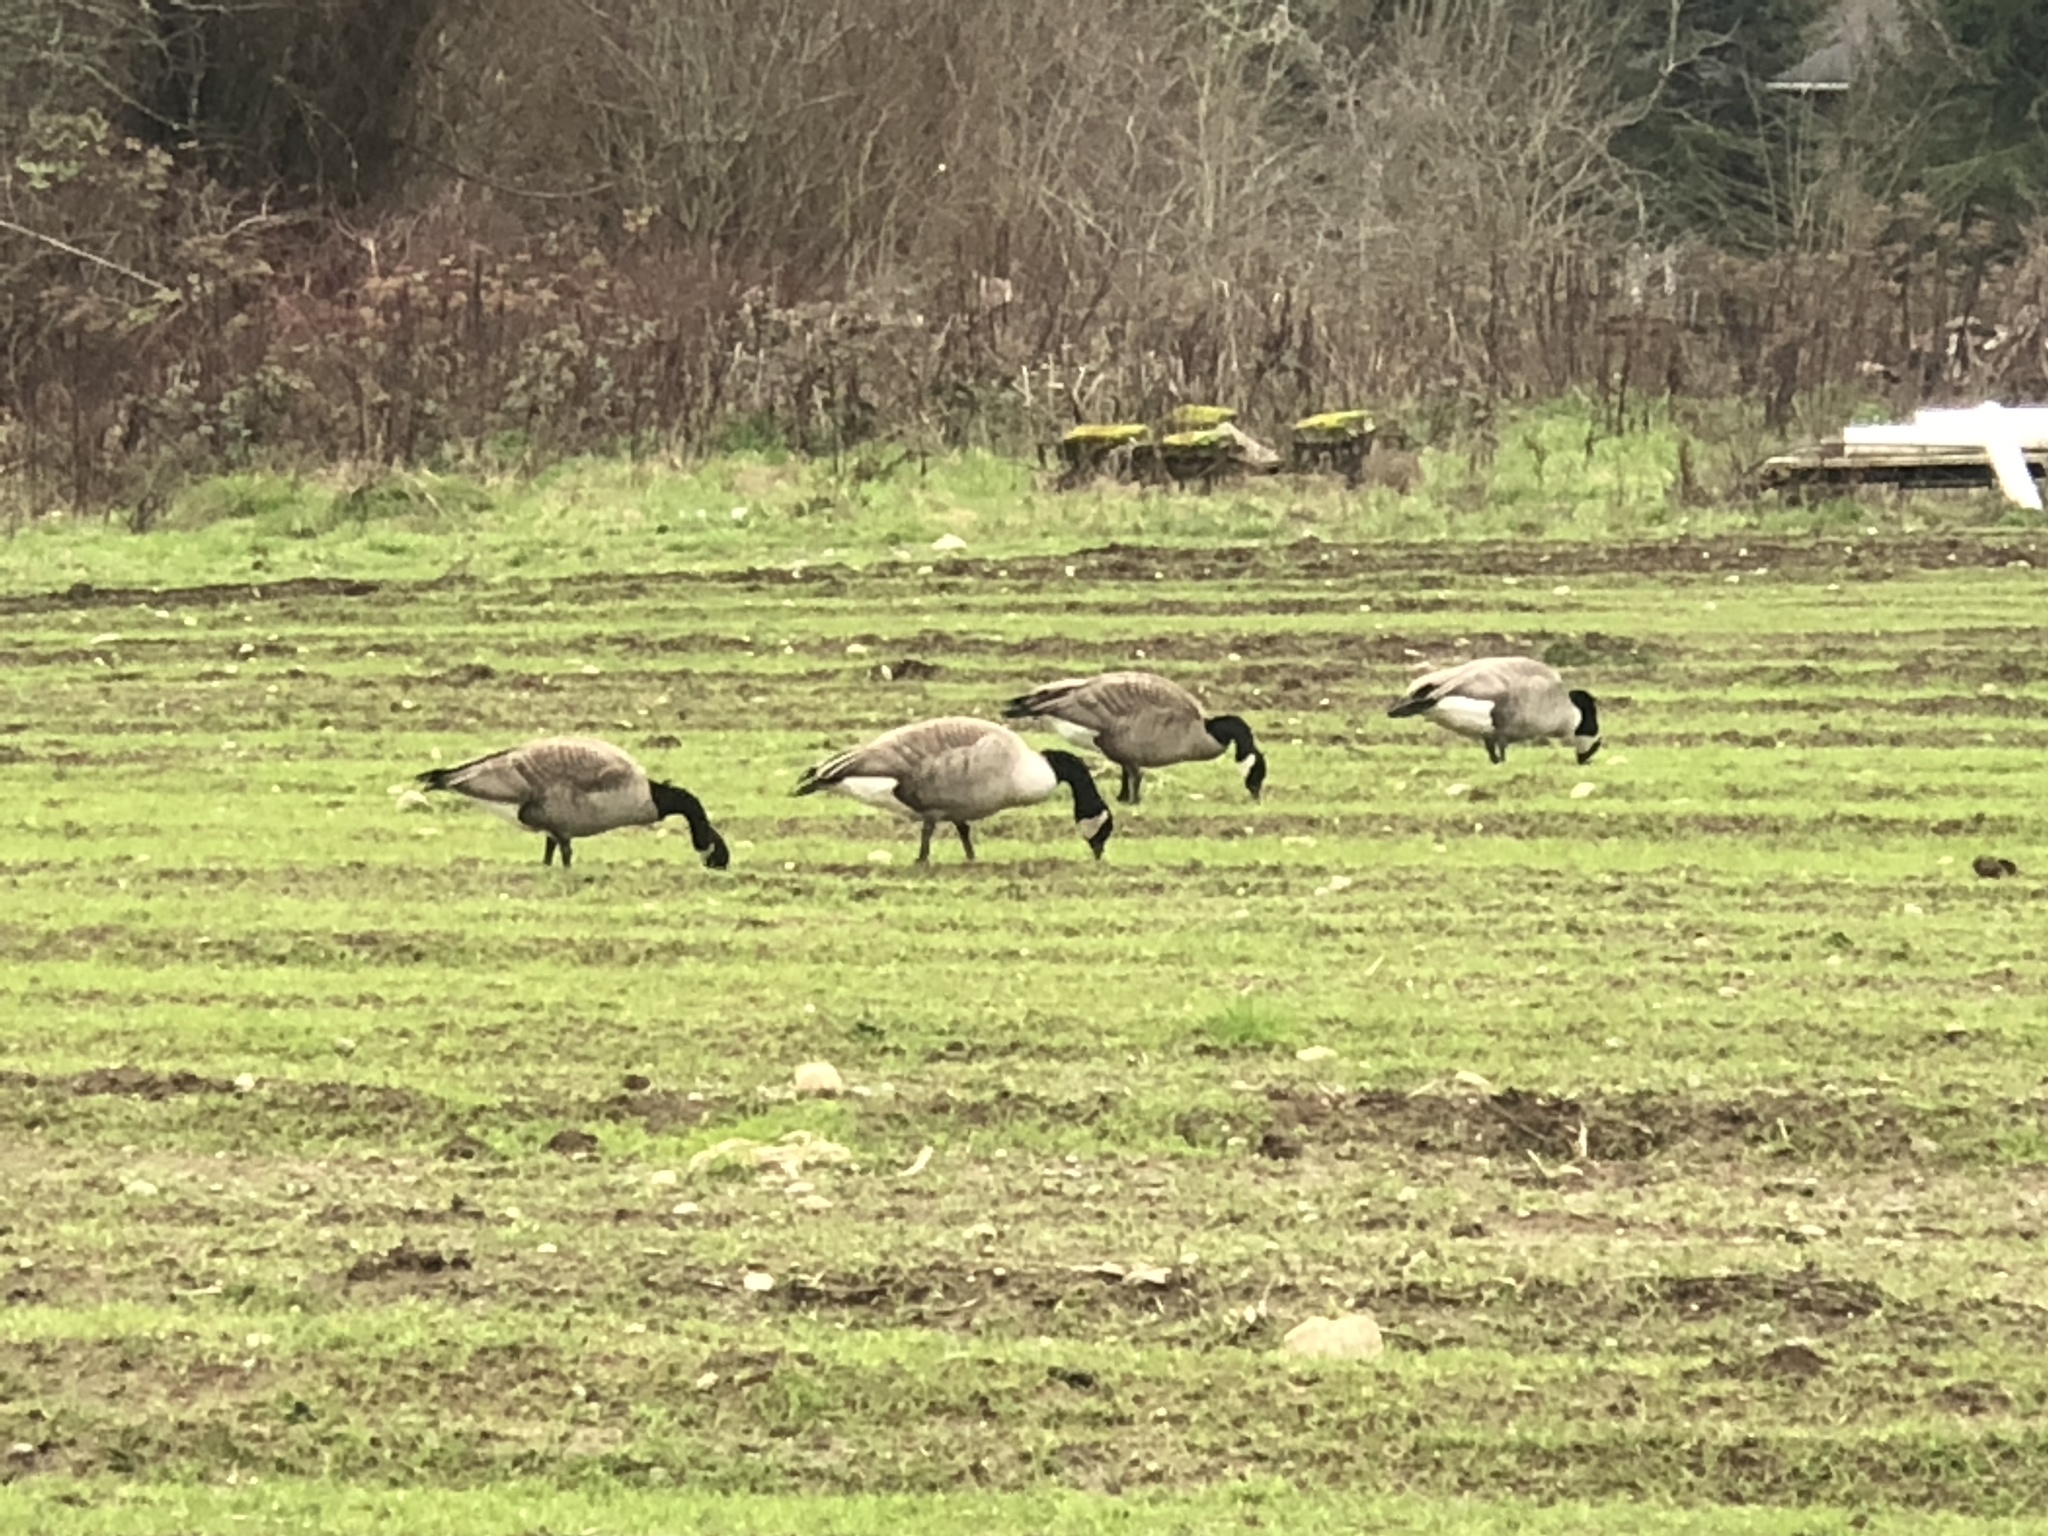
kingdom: Animalia
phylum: Chordata
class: Aves
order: Anseriformes
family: Anatidae
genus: Branta
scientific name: Branta canadensis
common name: Canada goose
